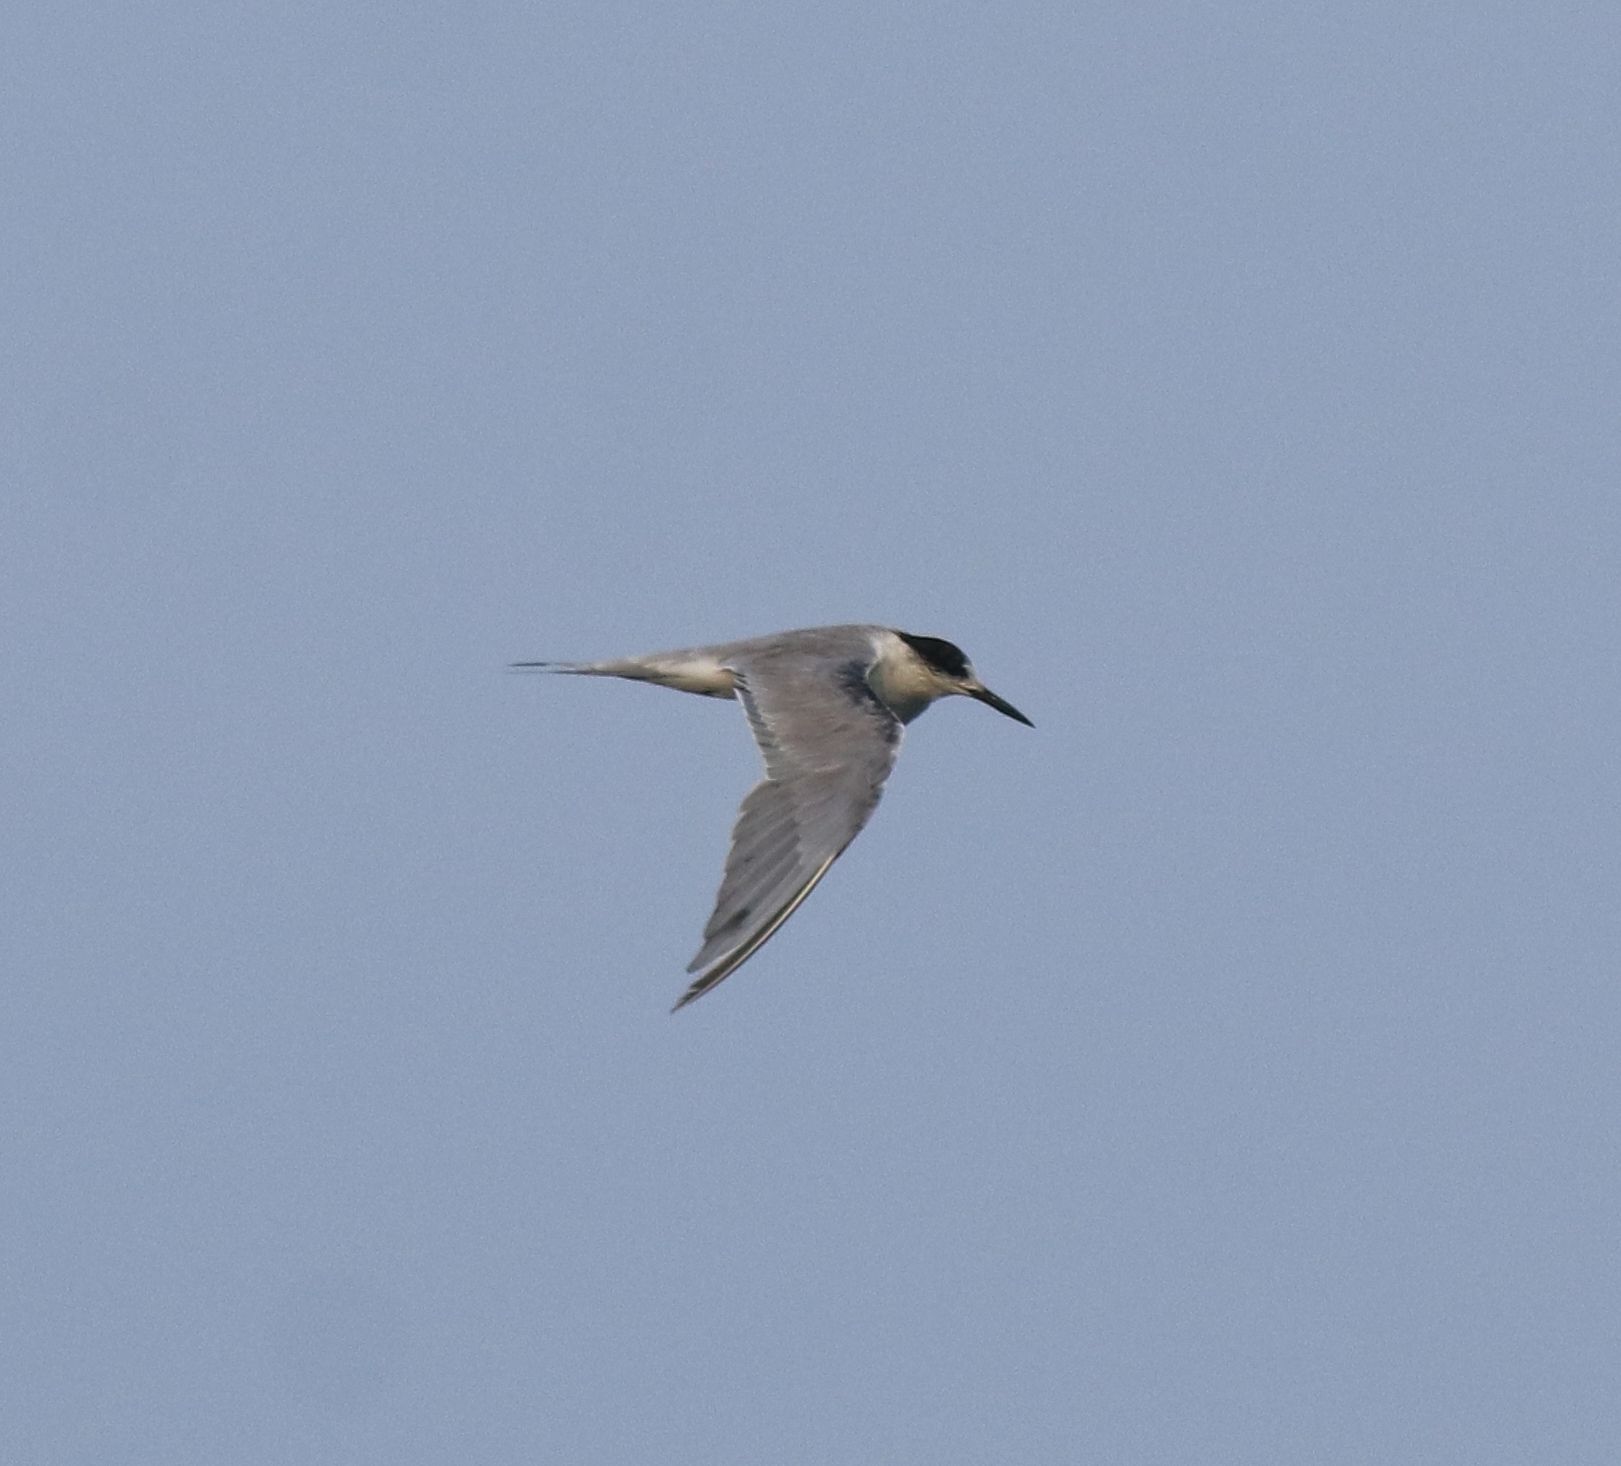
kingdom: Animalia
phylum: Chordata
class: Aves
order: Charadriiformes
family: Laridae
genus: Sterna
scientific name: Sterna repressa
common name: White-cheeked tern
